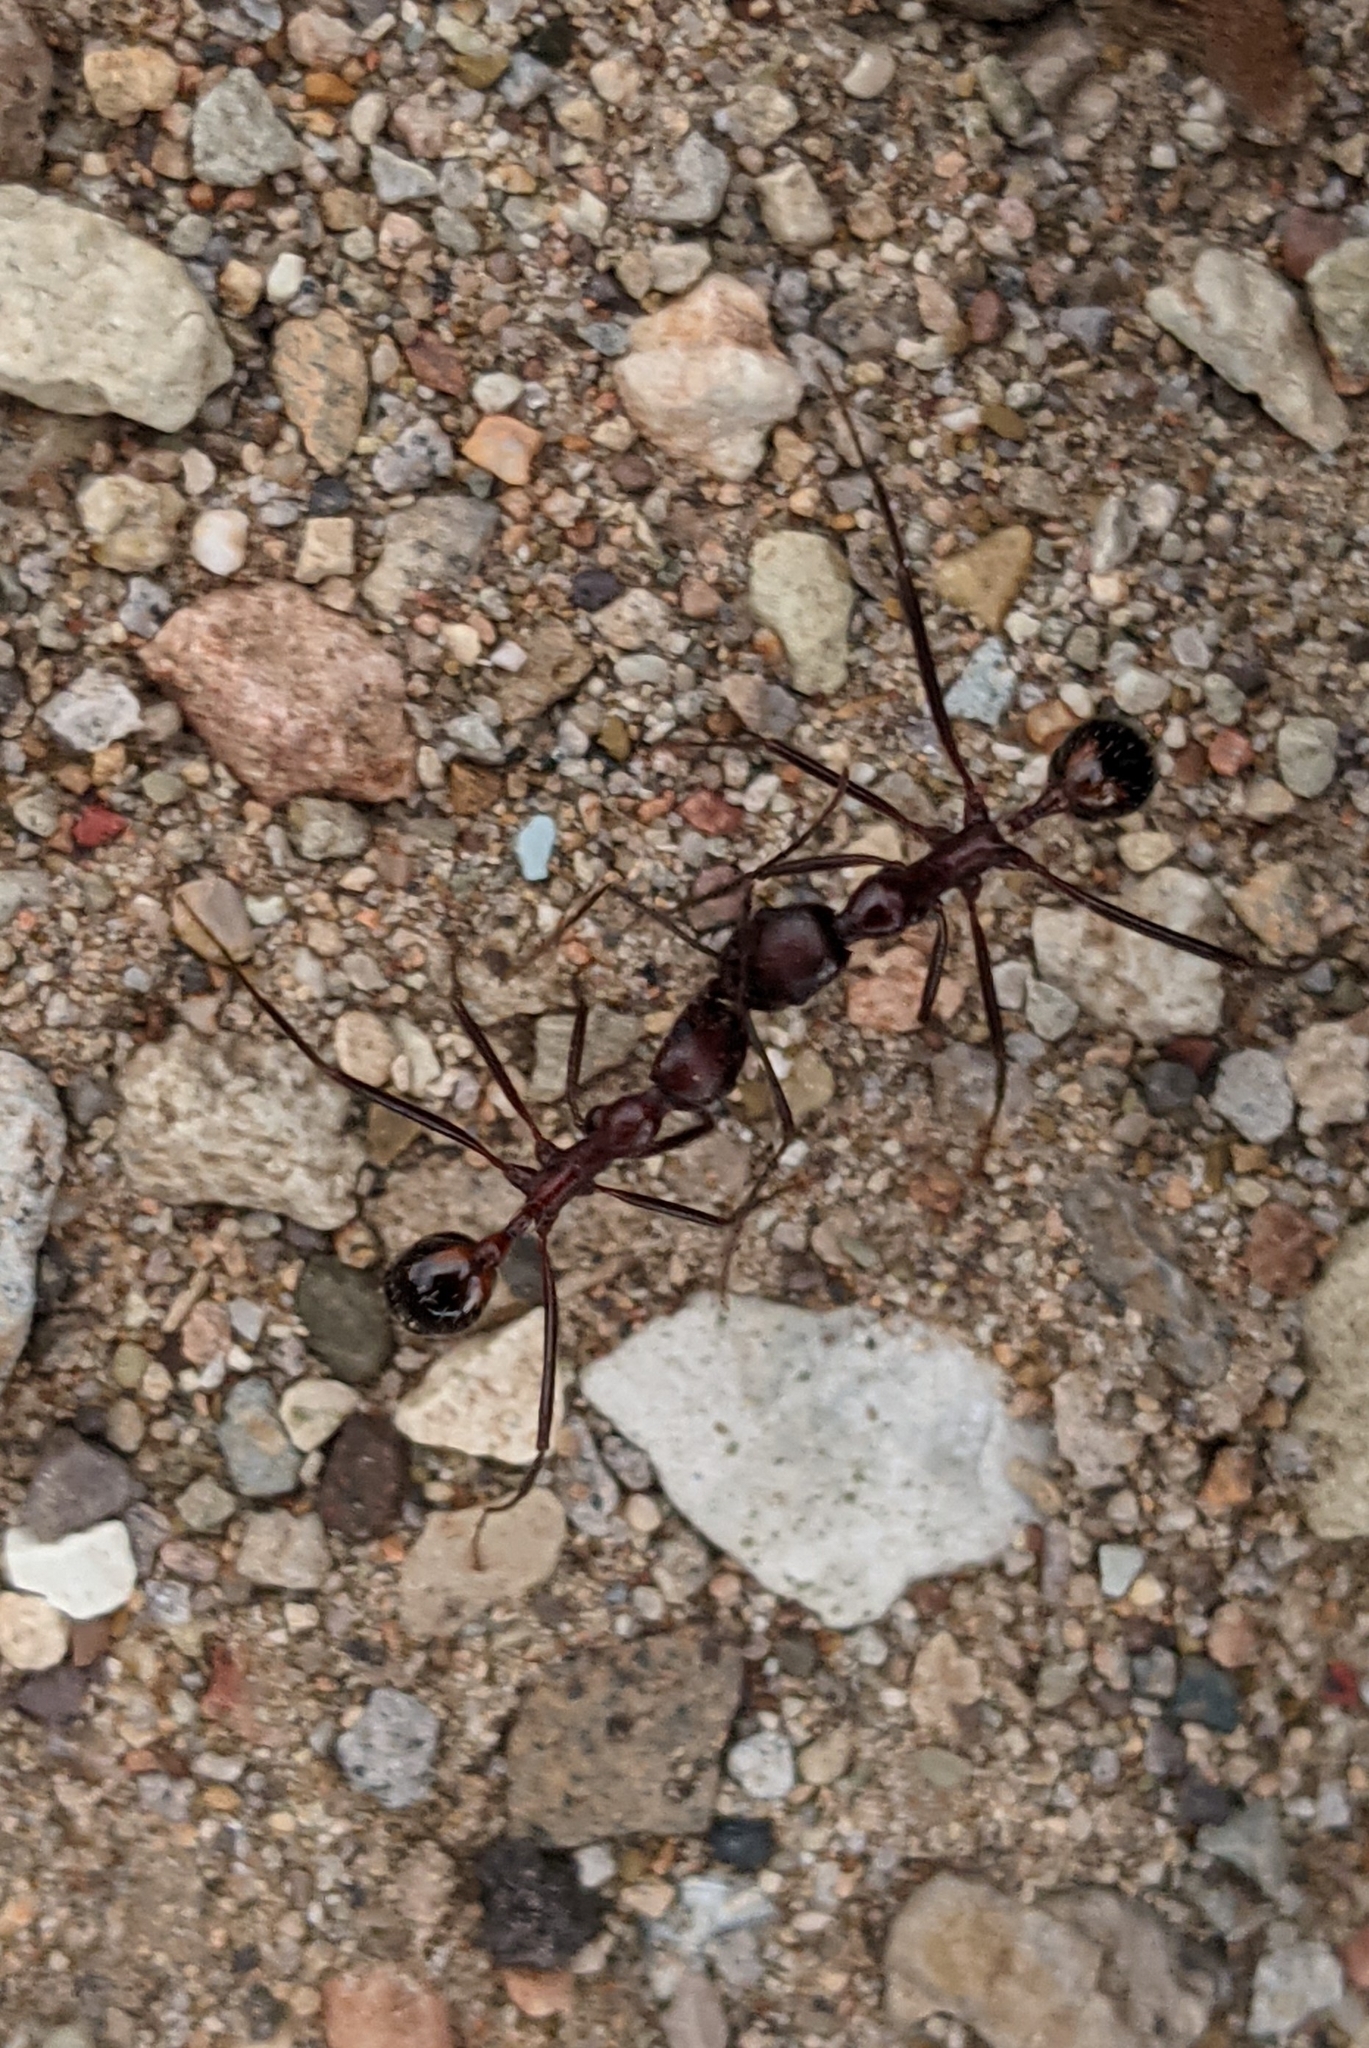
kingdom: Animalia
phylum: Arthropoda
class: Insecta
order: Hymenoptera
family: Formicidae
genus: Novomessor
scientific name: Novomessor cockerelli
